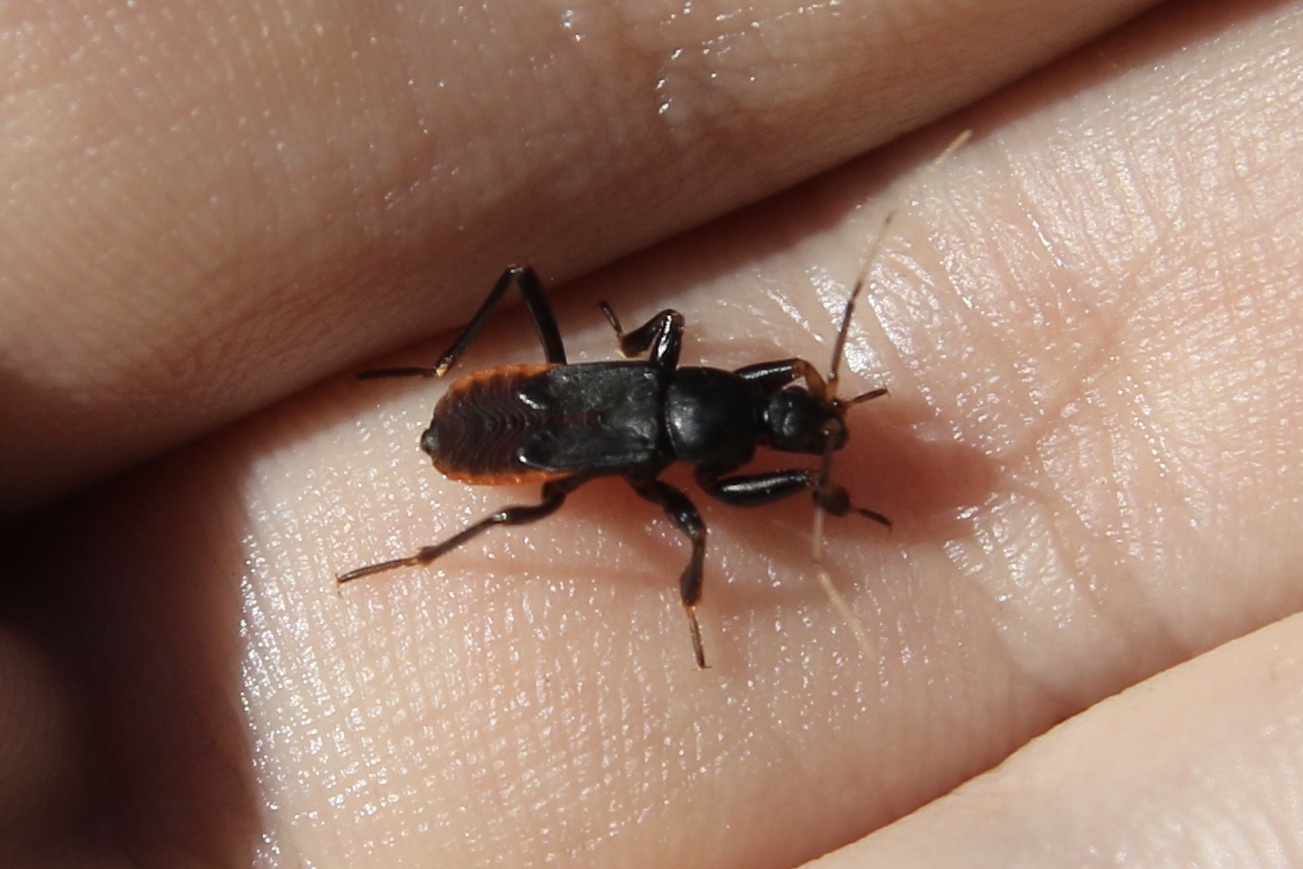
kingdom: Animalia
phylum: Arthropoda
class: Insecta
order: Hemiptera
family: Reduviidae
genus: Melanolestes
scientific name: Melanolestes picipes
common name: Assassin bug
